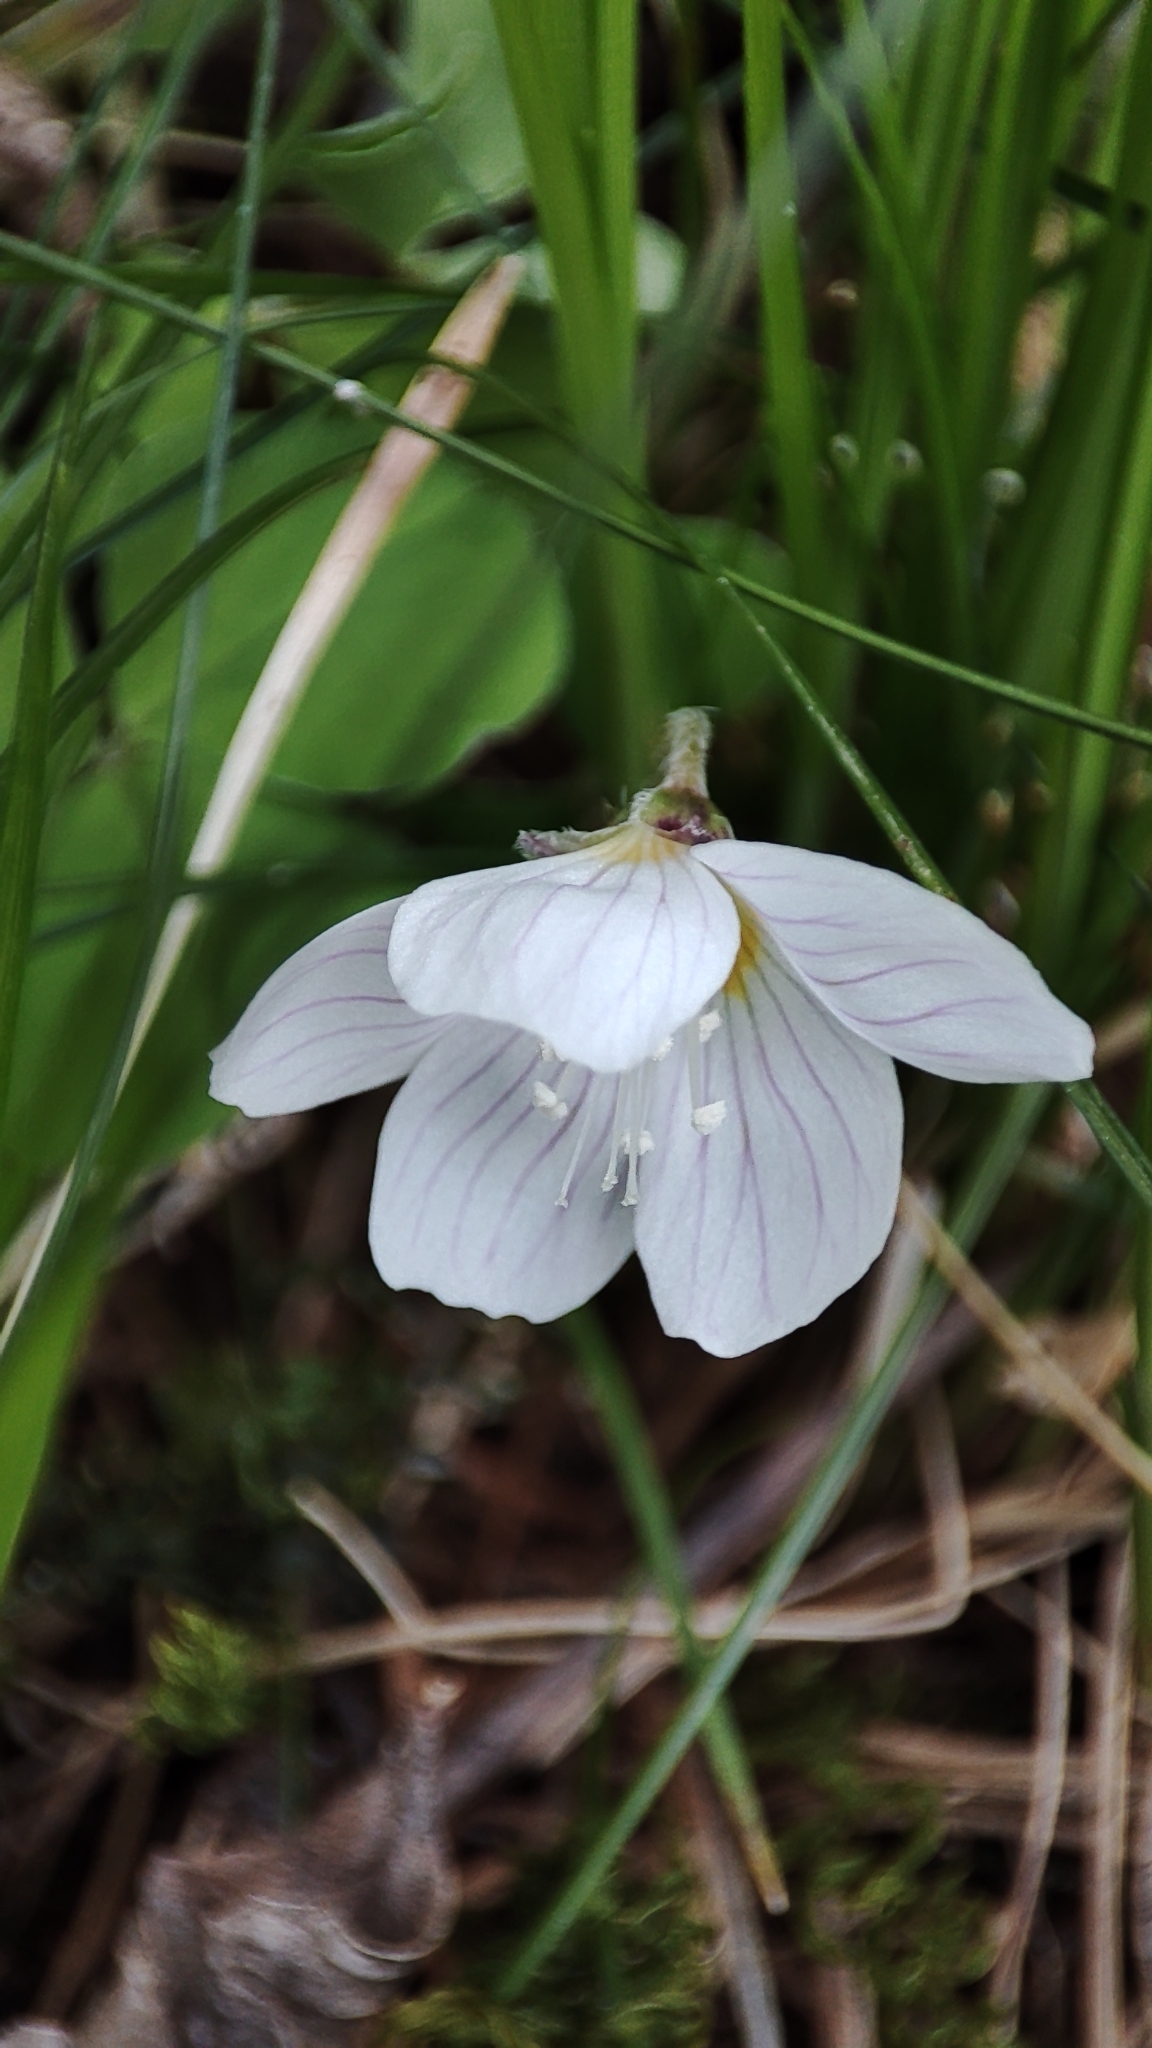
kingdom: Plantae
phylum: Tracheophyta
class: Magnoliopsida
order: Oxalidales
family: Oxalidaceae
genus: Oxalis
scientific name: Oxalis acetosella
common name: Wood-sorrel
